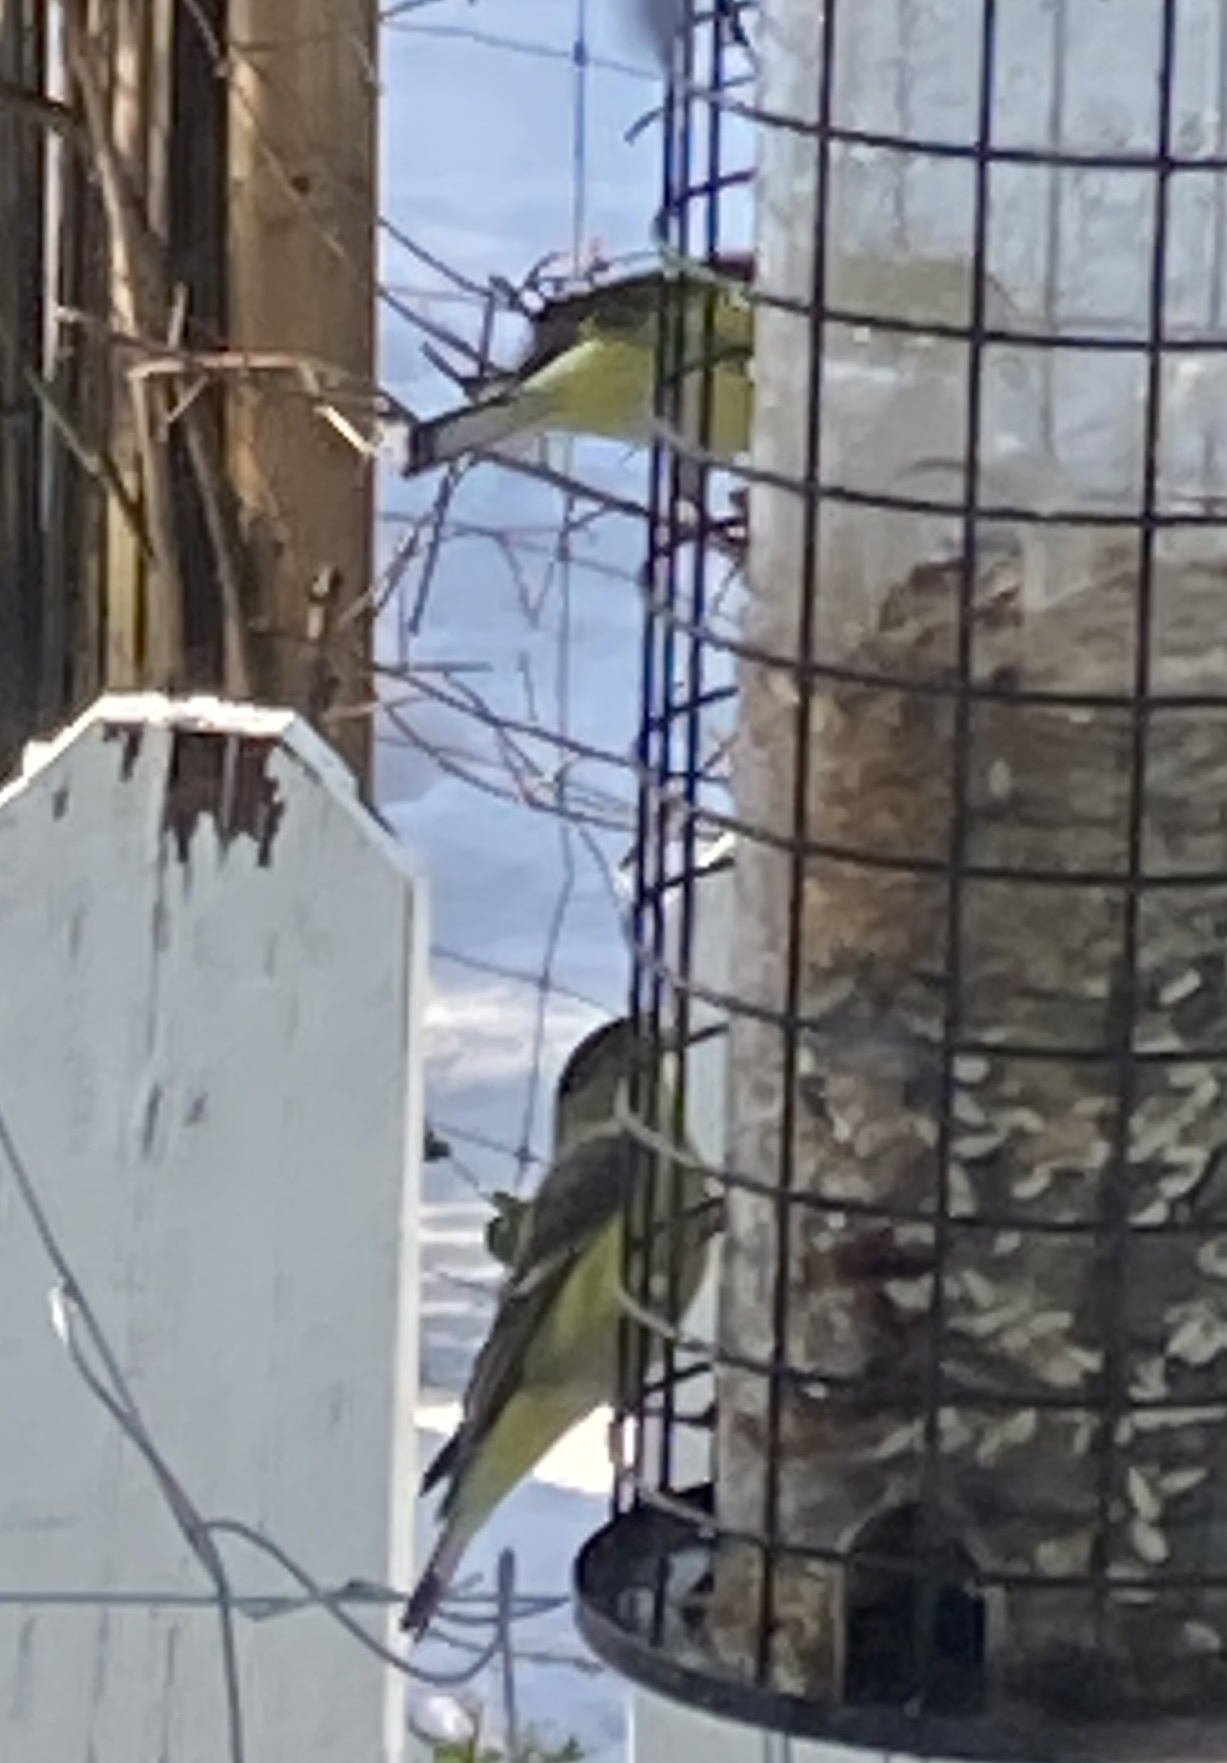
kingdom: Animalia
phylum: Chordata
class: Aves
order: Passeriformes
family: Fringillidae
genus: Spinus
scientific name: Spinus psaltria
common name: Lesser goldfinch
